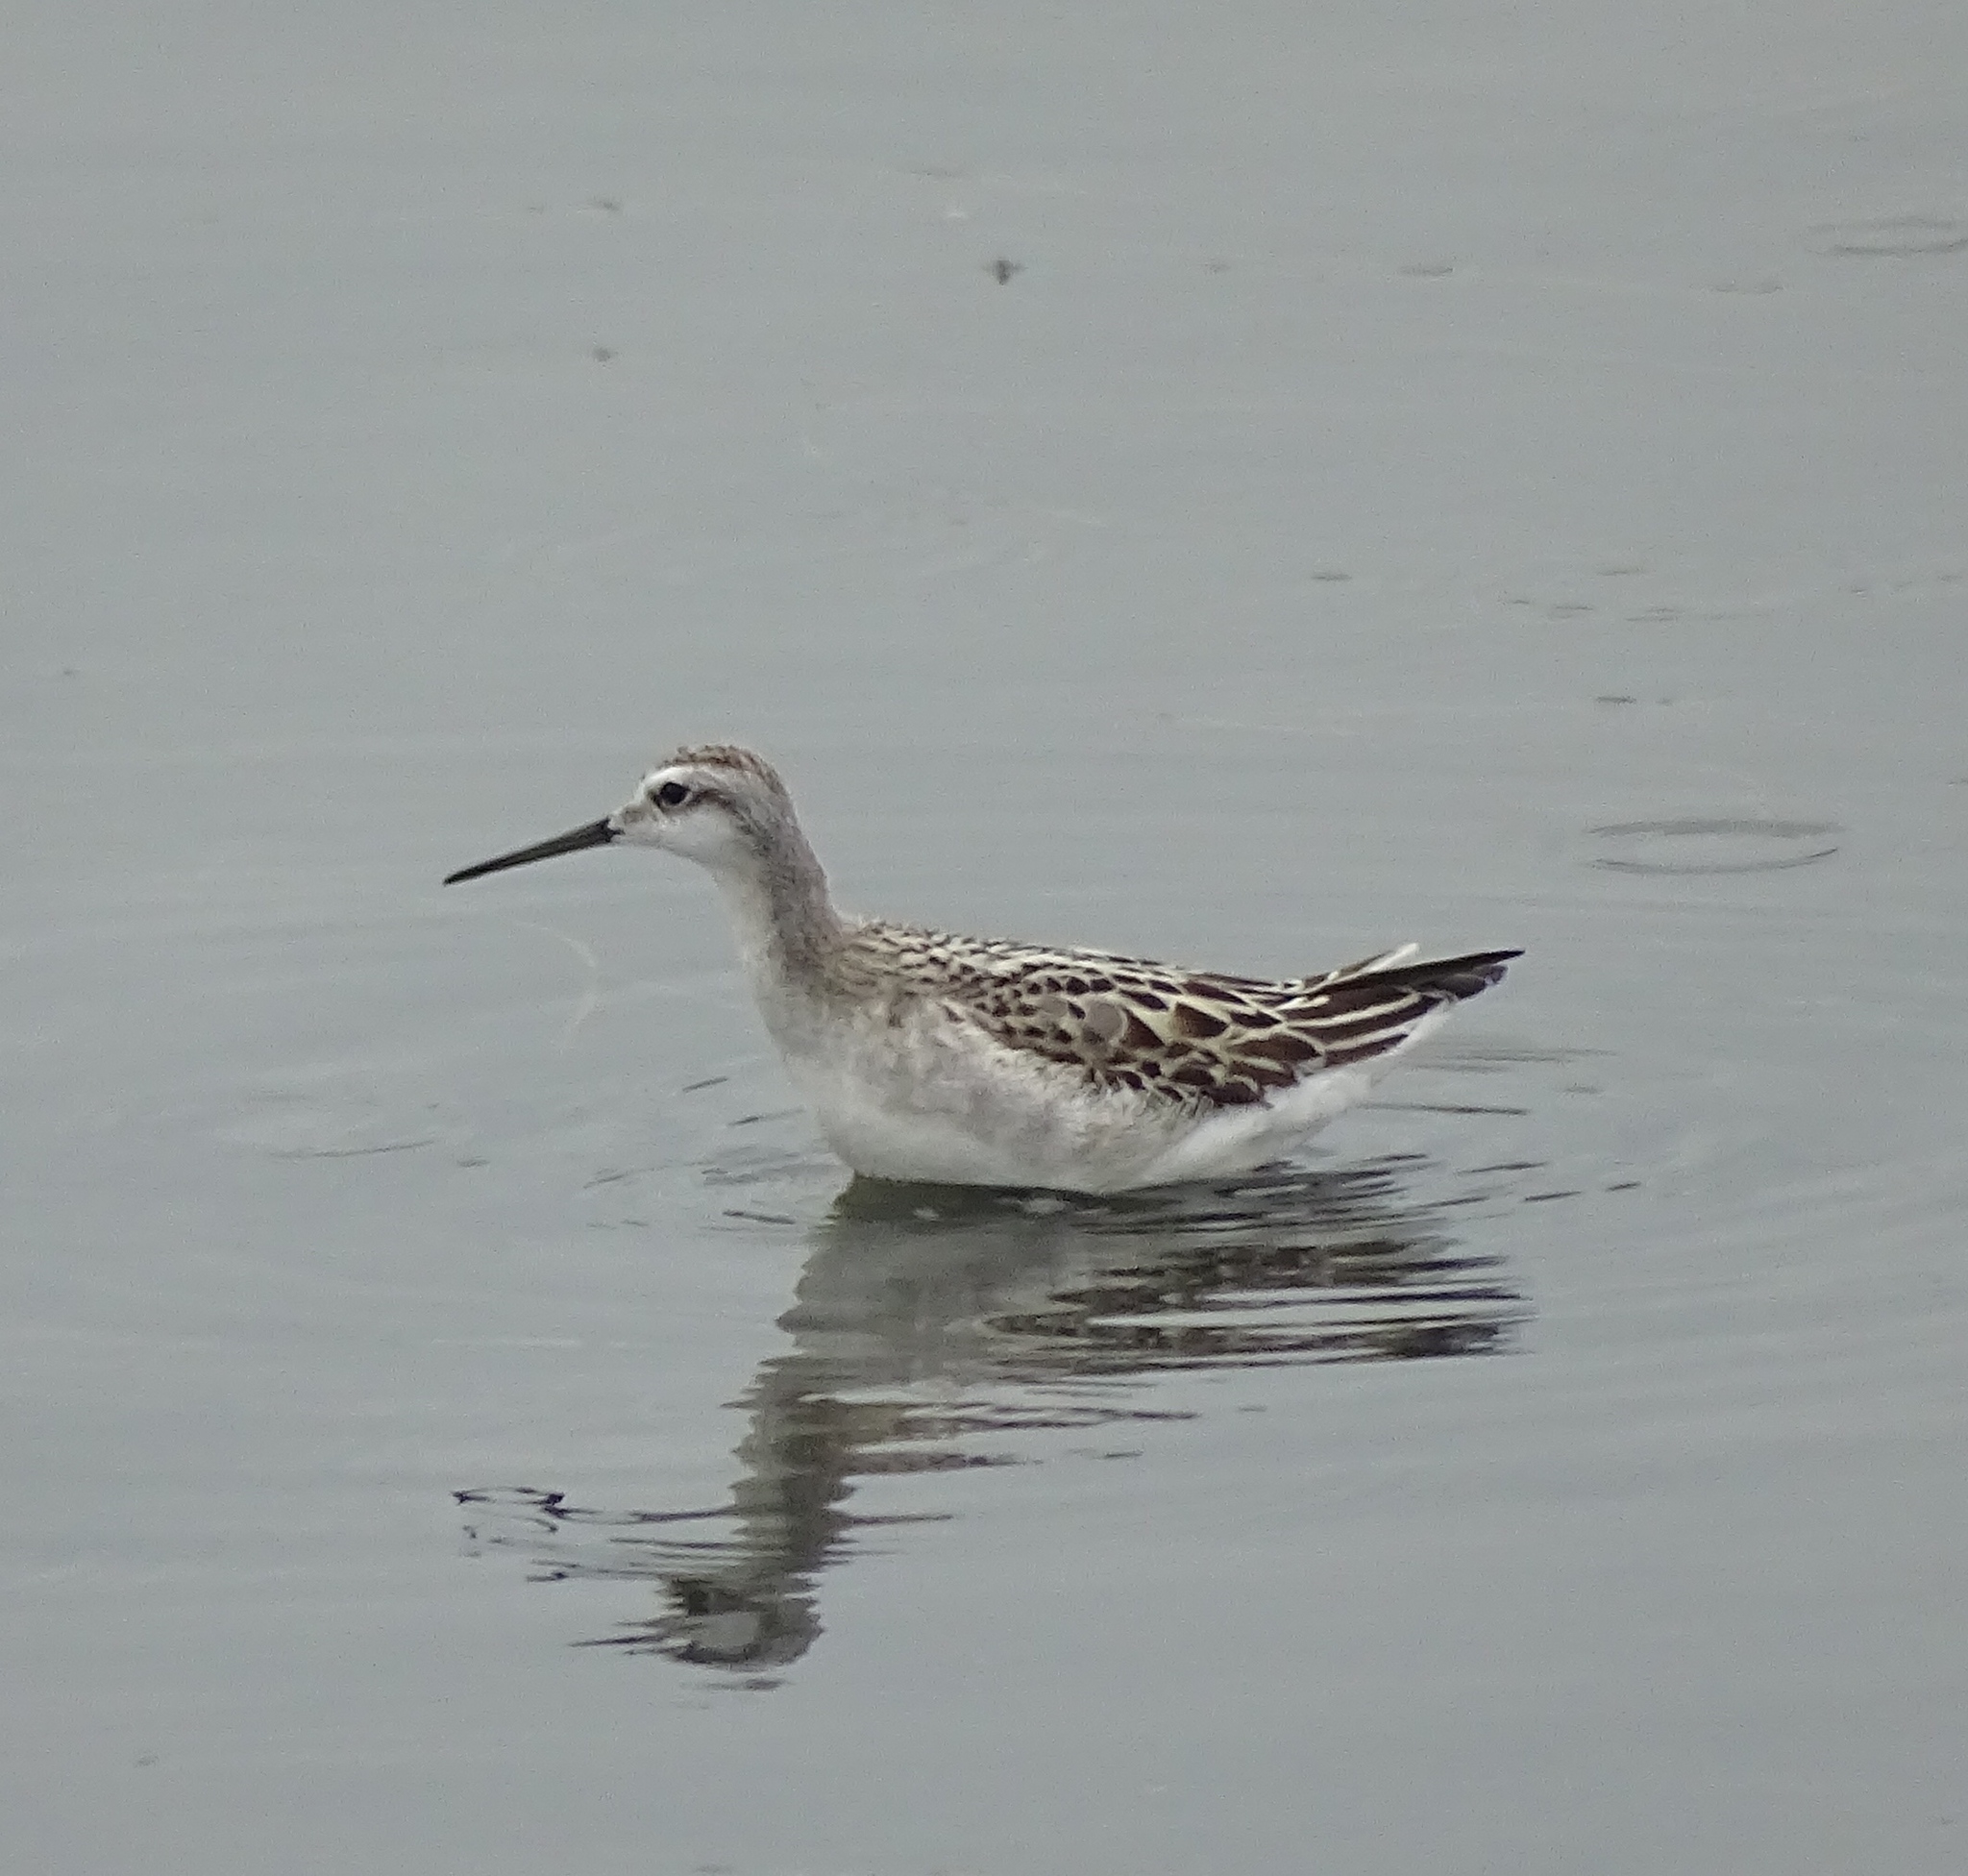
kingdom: Animalia
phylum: Chordata
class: Aves
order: Charadriiformes
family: Scolopacidae
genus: Phalaropus
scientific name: Phalaropus tricolor
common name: Wilson's phalarope
